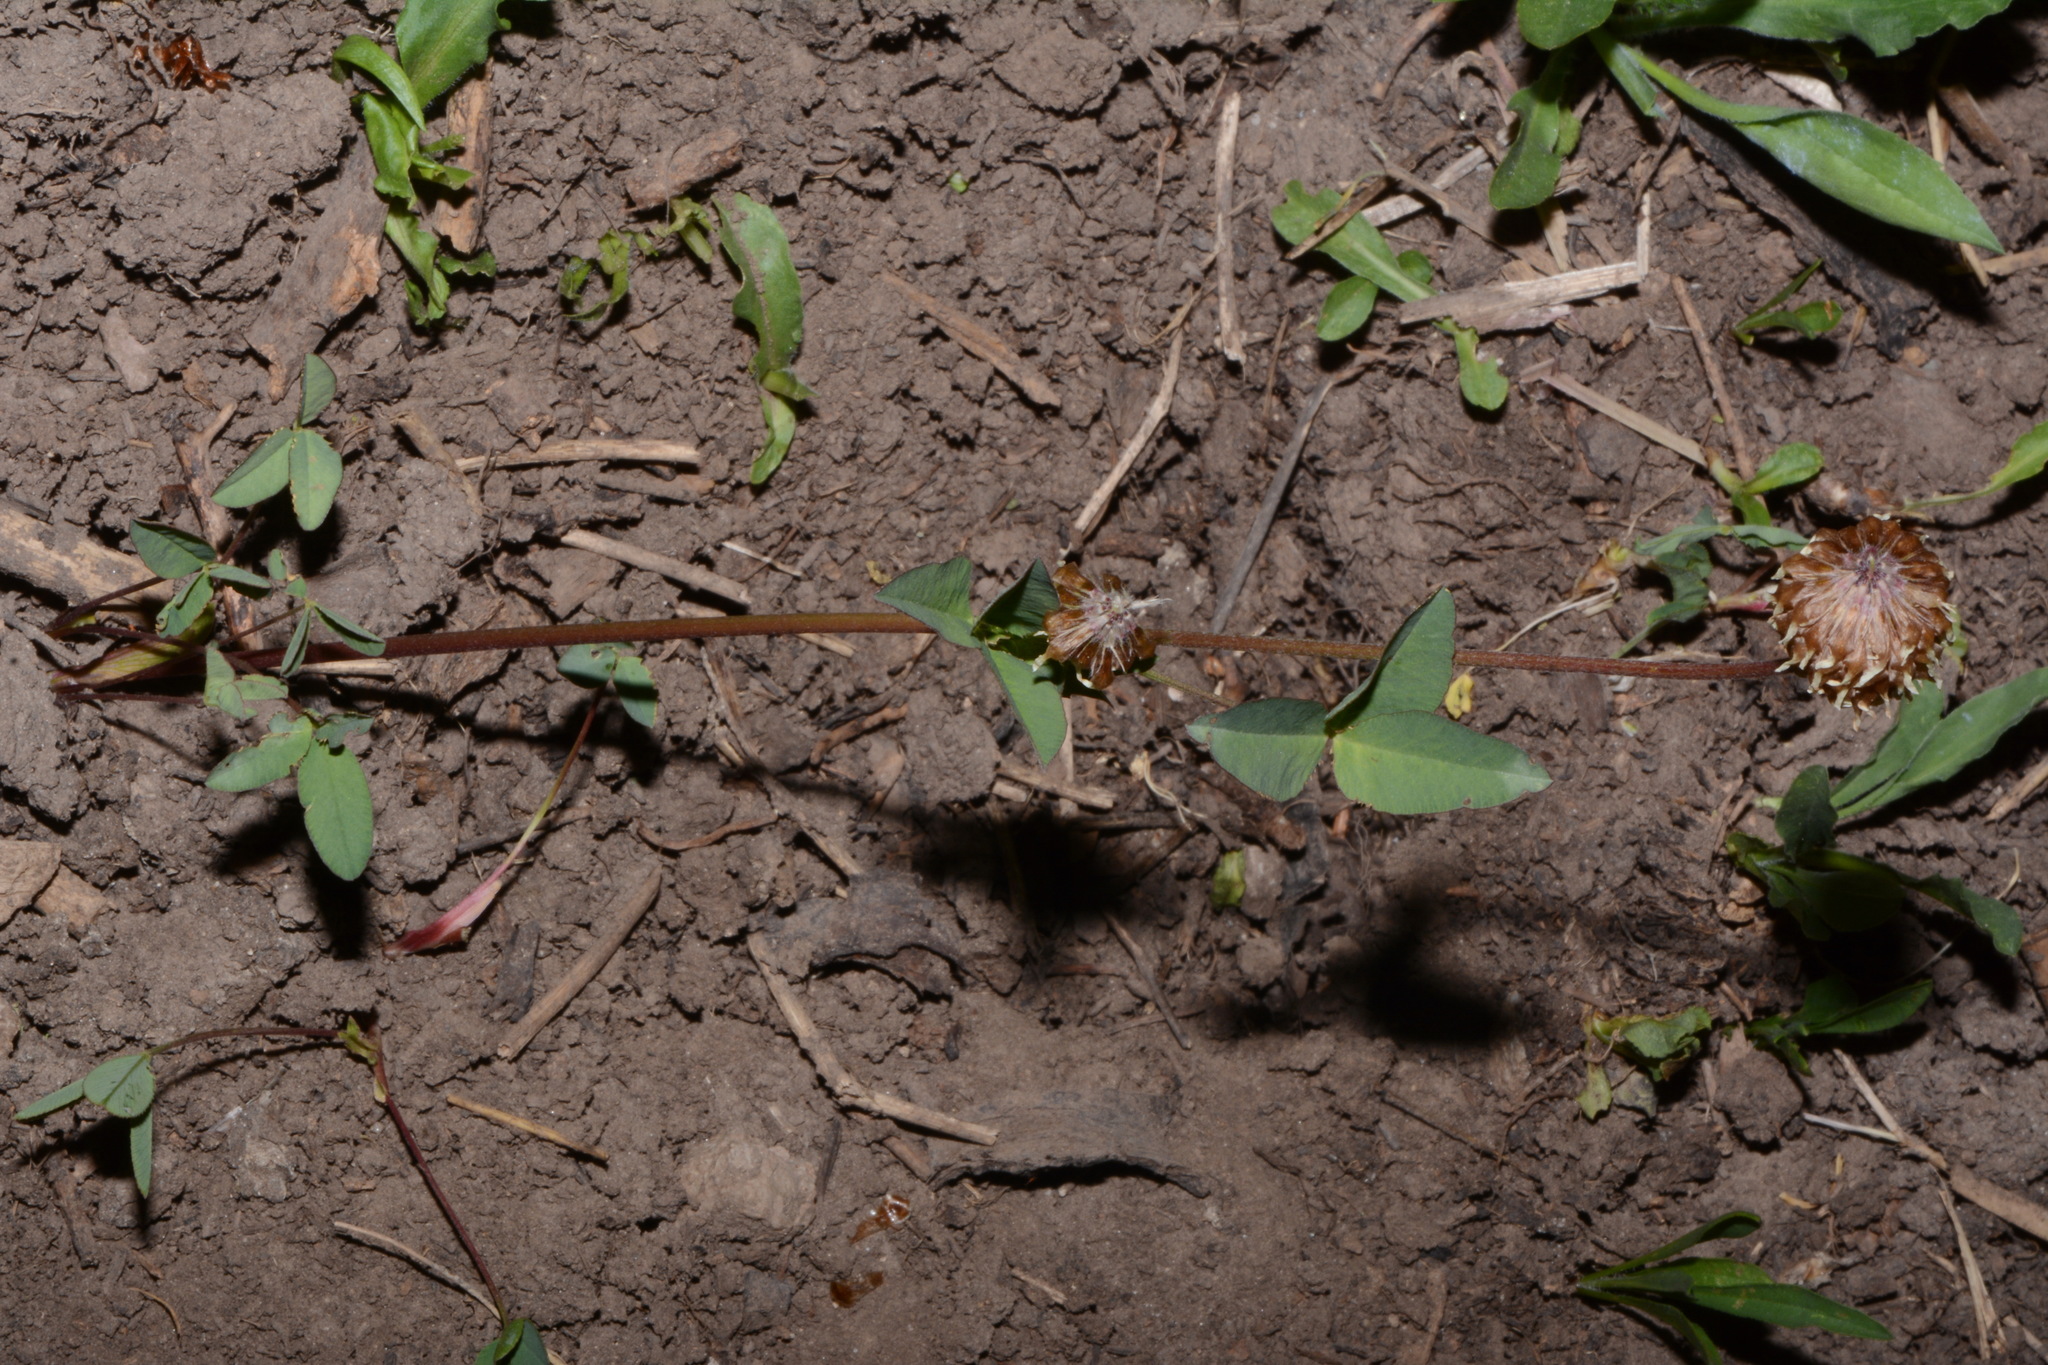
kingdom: Plantae
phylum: Tracheophyta
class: Magnoliopsida
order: Fabales
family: Fabaceae
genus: Trifolium
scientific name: Trifolium longipes
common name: Long-stalk clover
